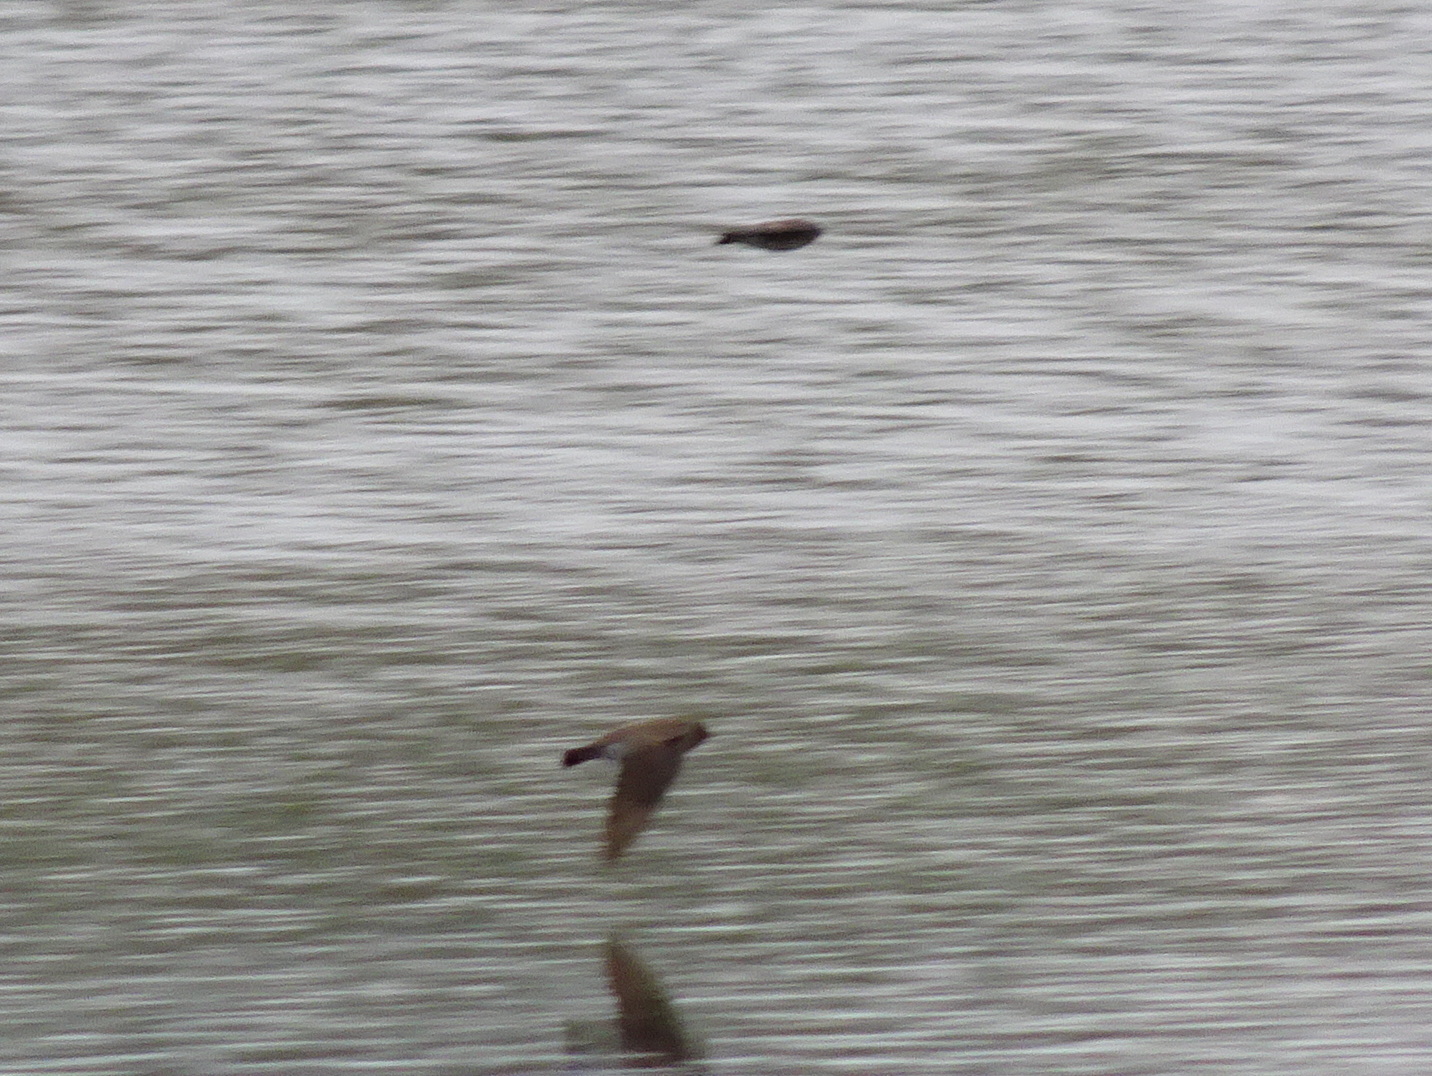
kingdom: Animalia
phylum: Chordata
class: Aves
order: Passeriformes
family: Hirundinidae
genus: Stelgidopteryx
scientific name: Stelgidopteryx serripennis
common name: Northern rough-winged swallow
